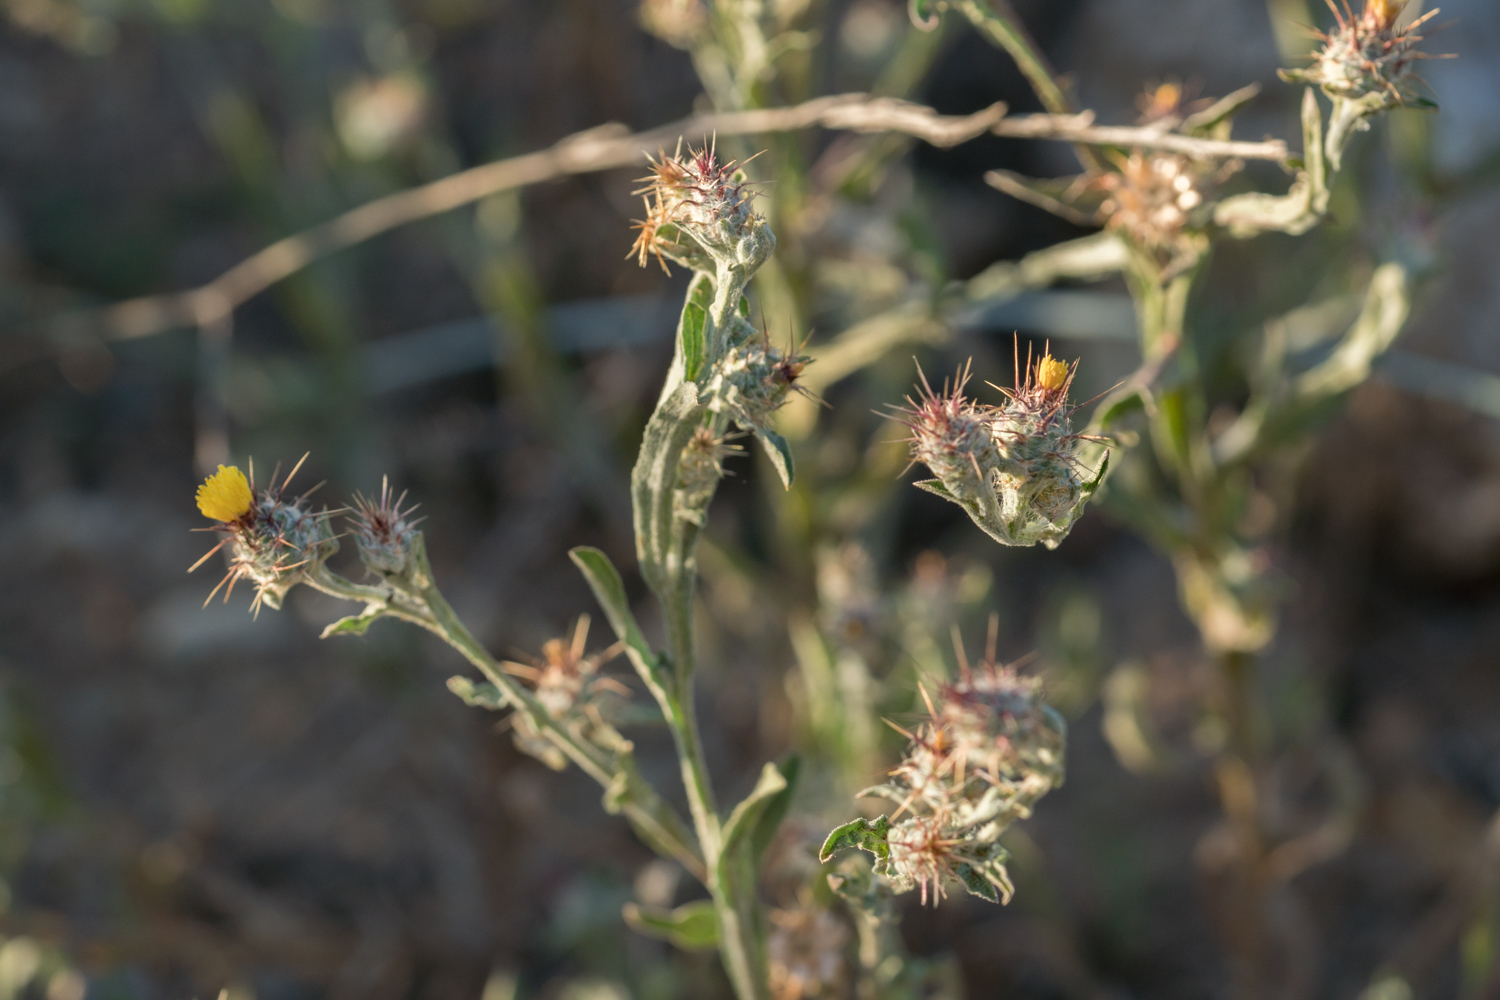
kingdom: Plantae
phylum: Tracheophyta
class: Magnoliopsida
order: Asterales
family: Asteraceae
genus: Centaurea
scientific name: Centaurea melitensis
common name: Maltese star-thistle
